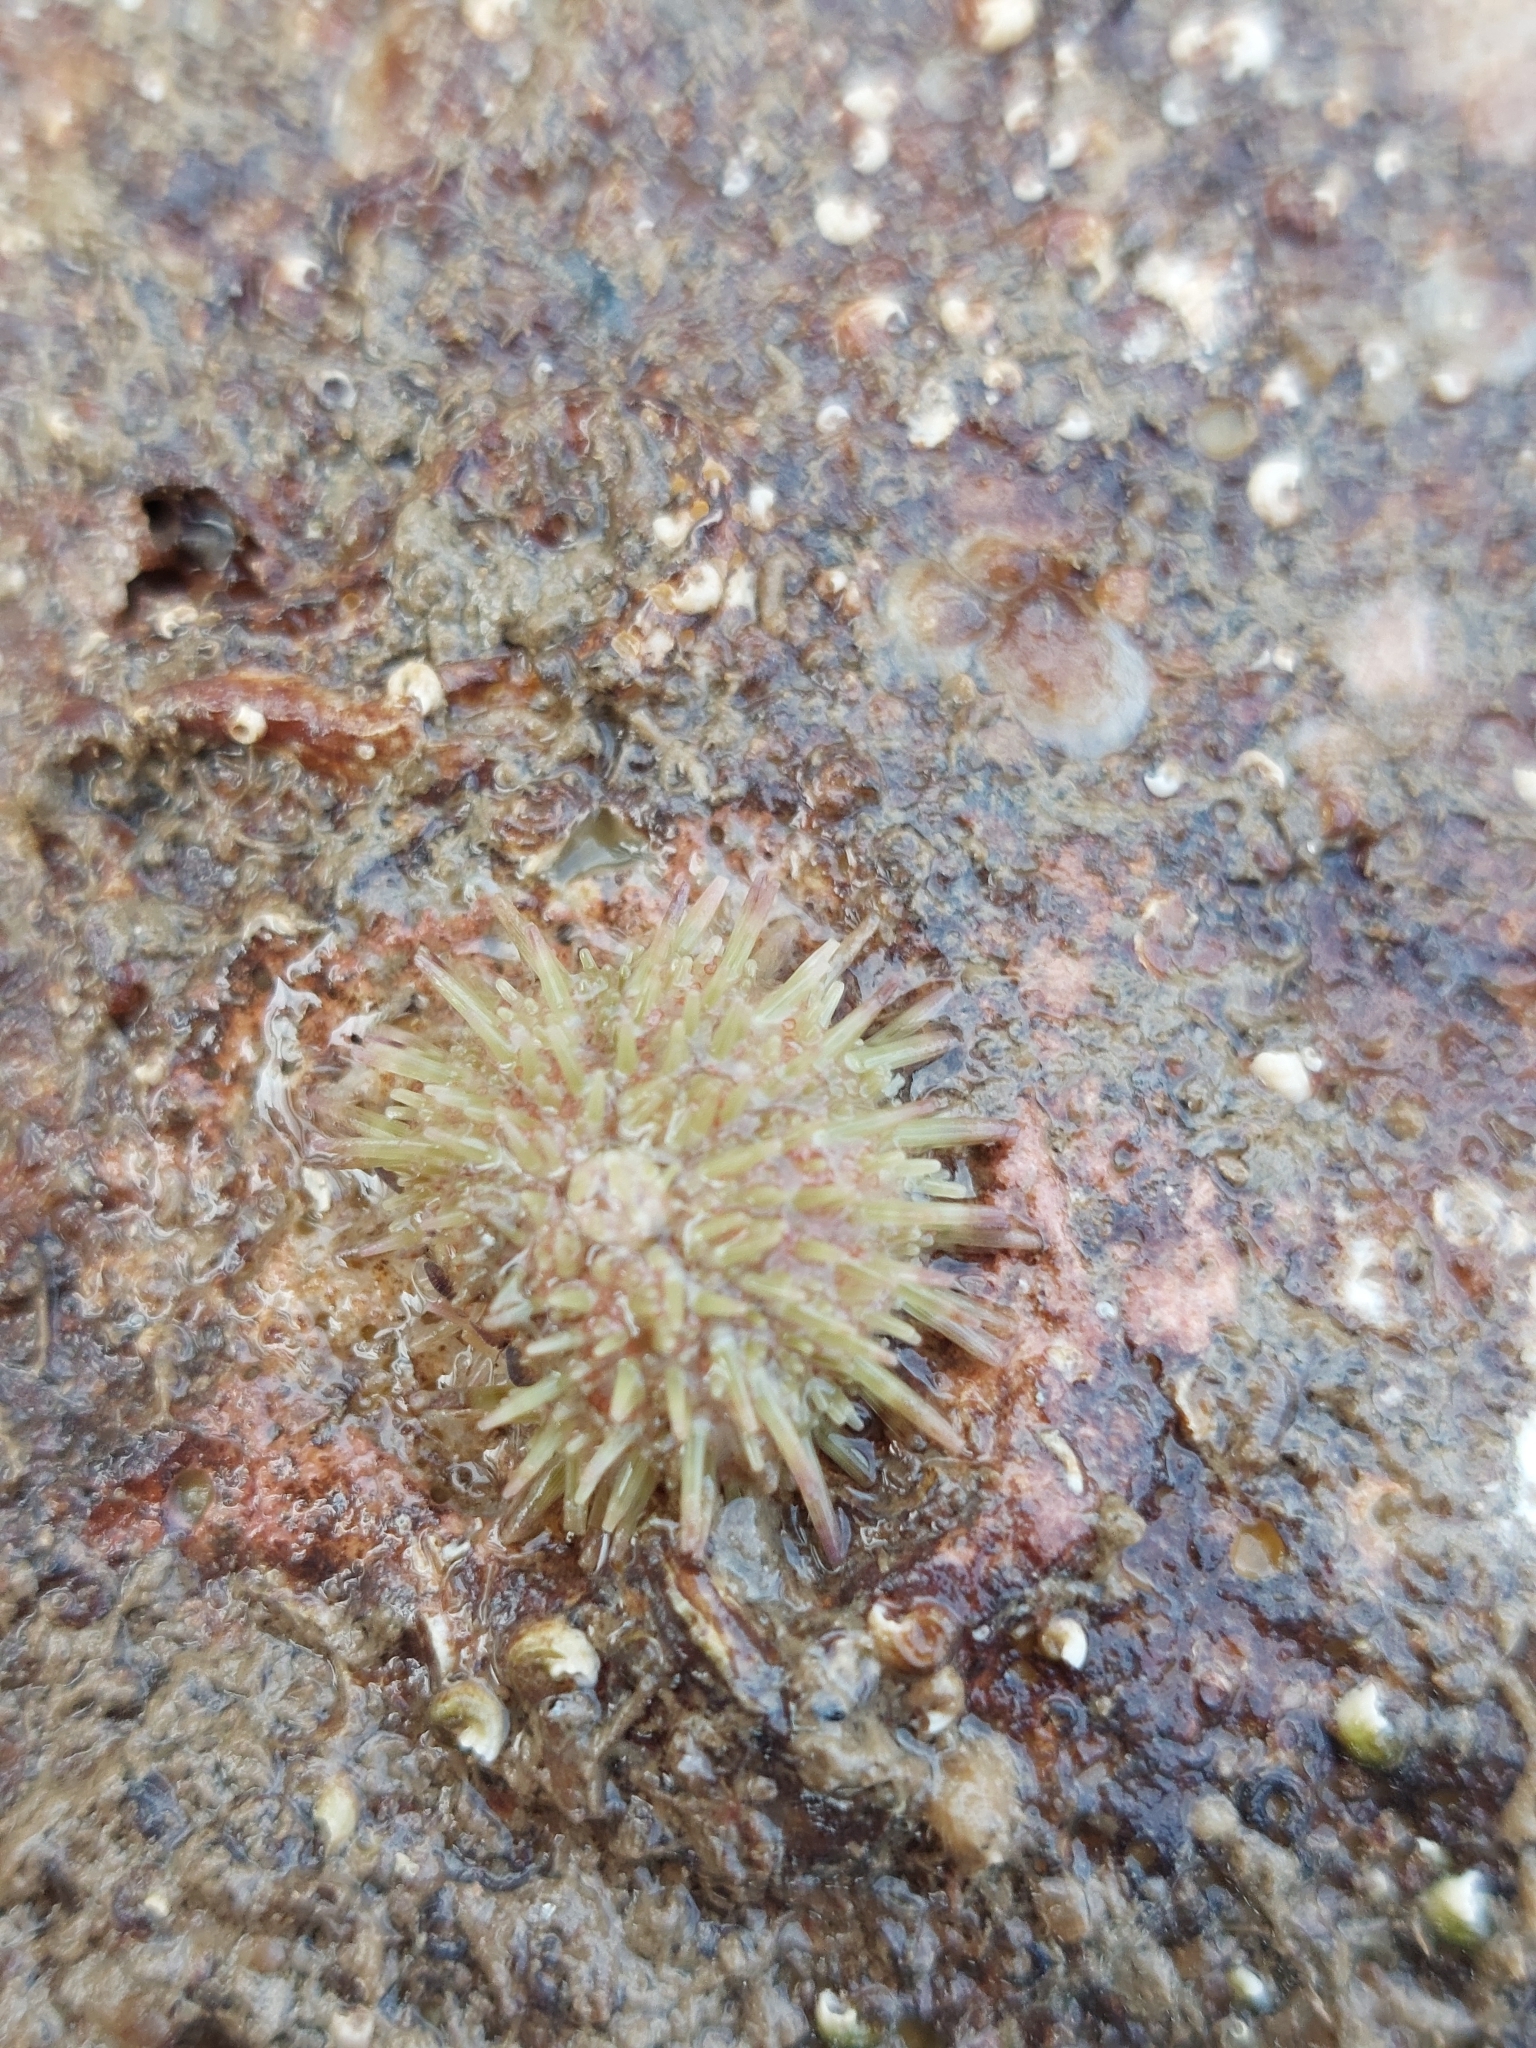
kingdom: Animalia
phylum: Echinodermata
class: Echinoidea
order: Camarodonta
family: Parechinidae
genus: Psammechinus
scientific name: Psammechinus miliaris
